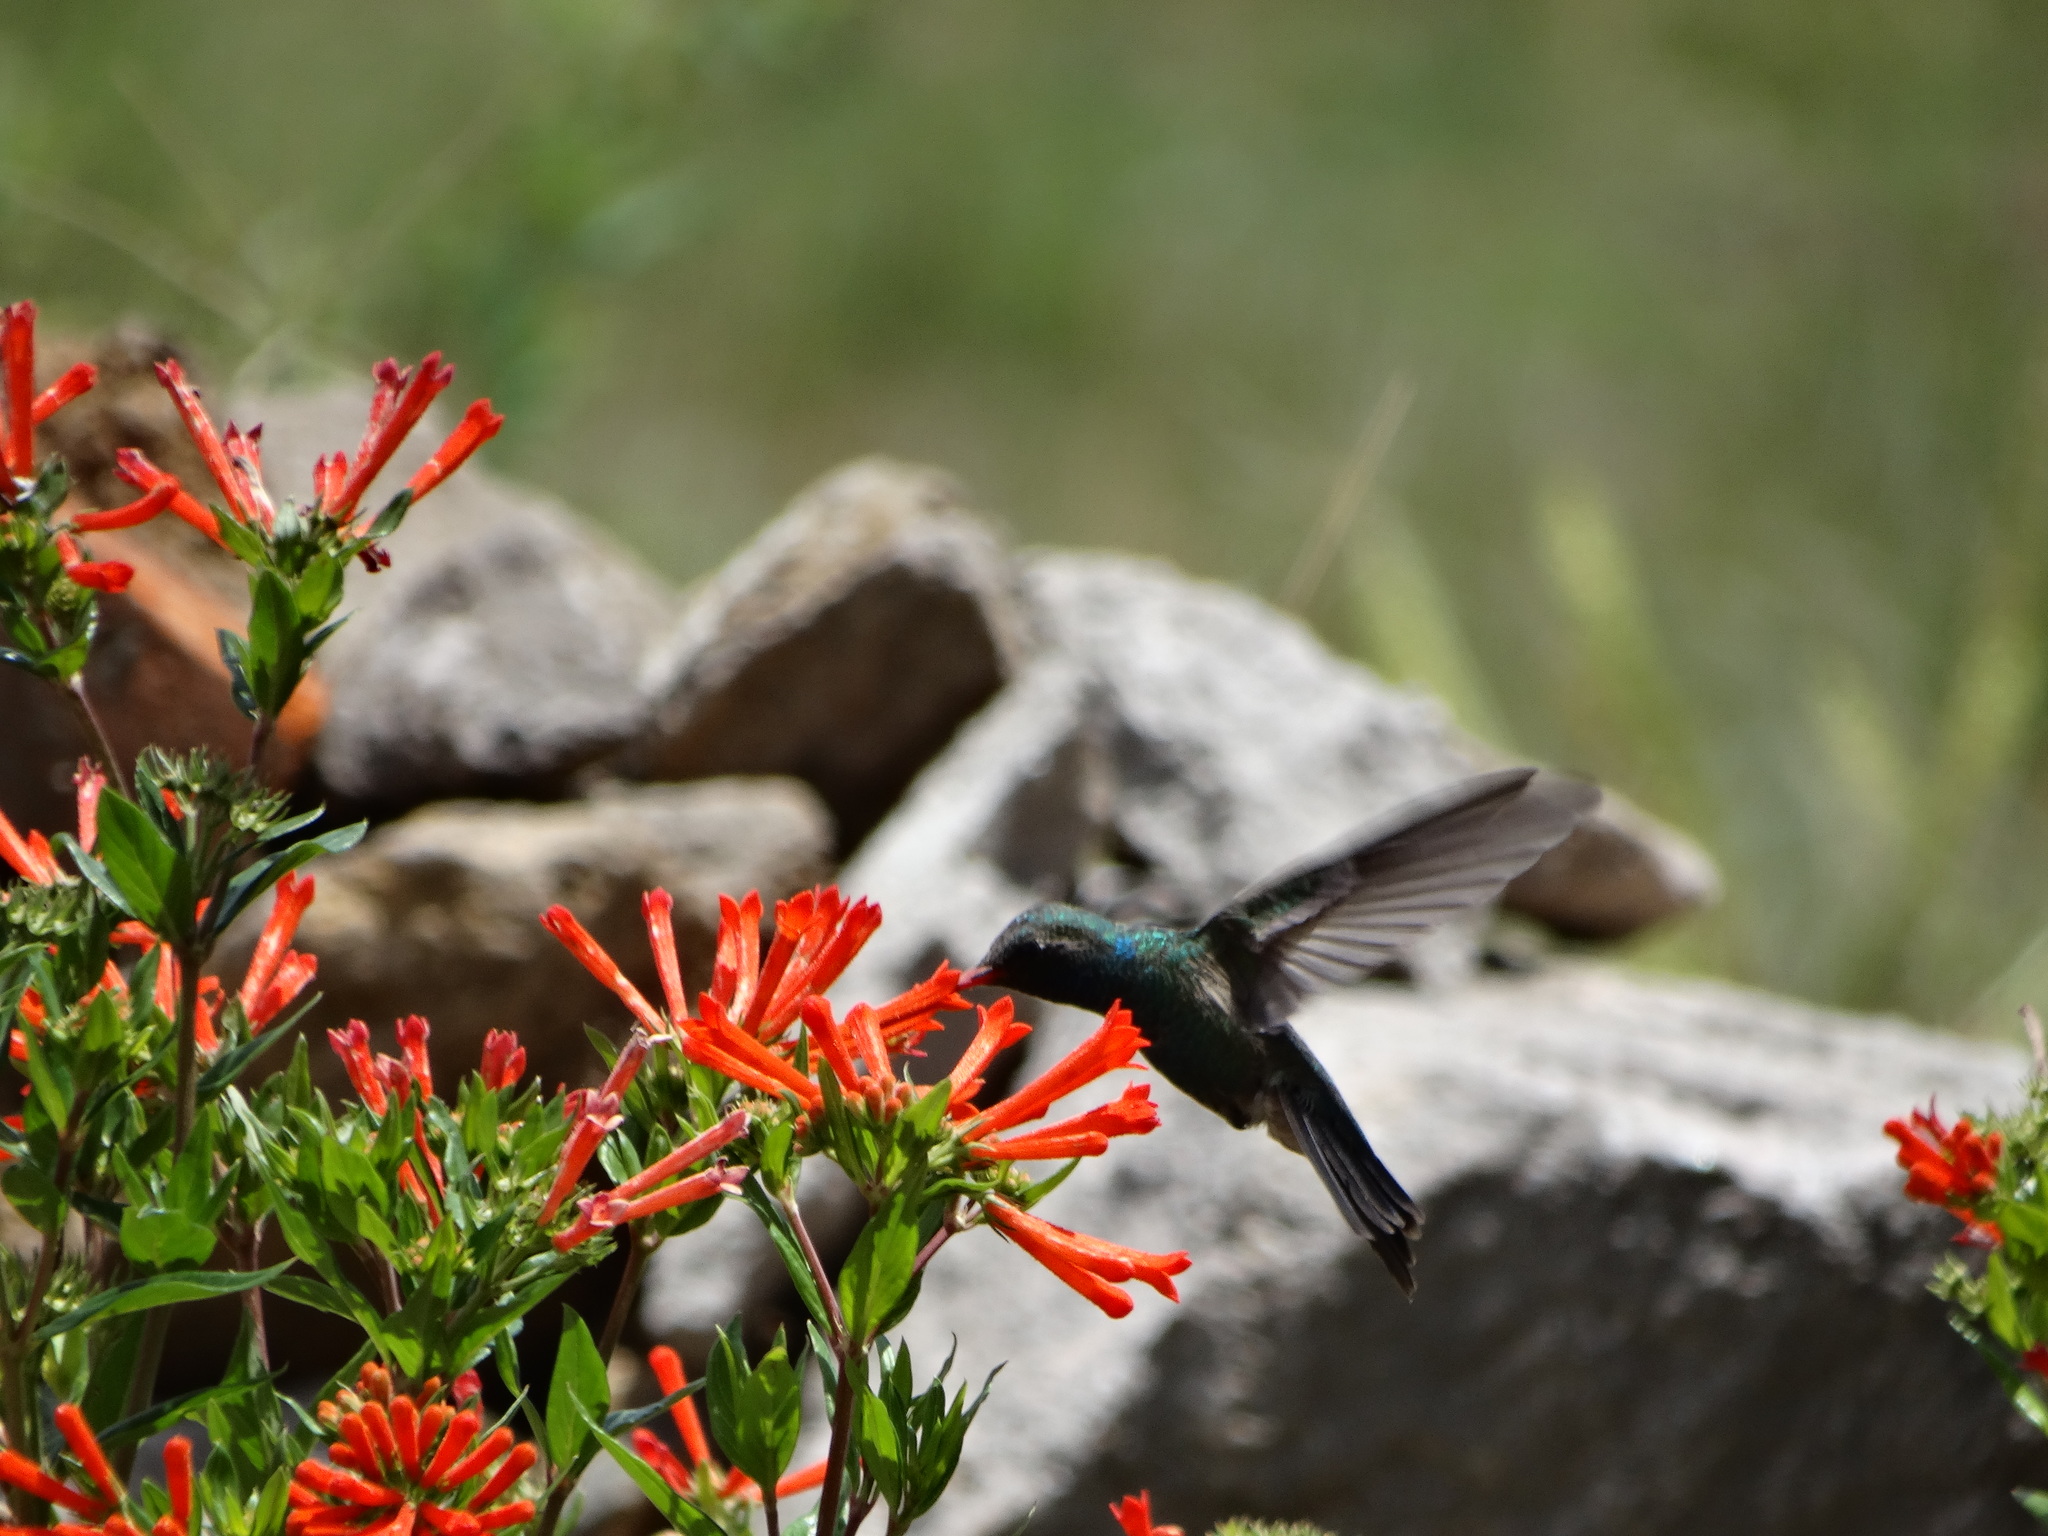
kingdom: Animalia
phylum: Chordata
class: Aves
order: Apodiformes
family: Trochilidae
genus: Cynanthus
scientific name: Cynanthus latirostris
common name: Broad-billed hummingbird
